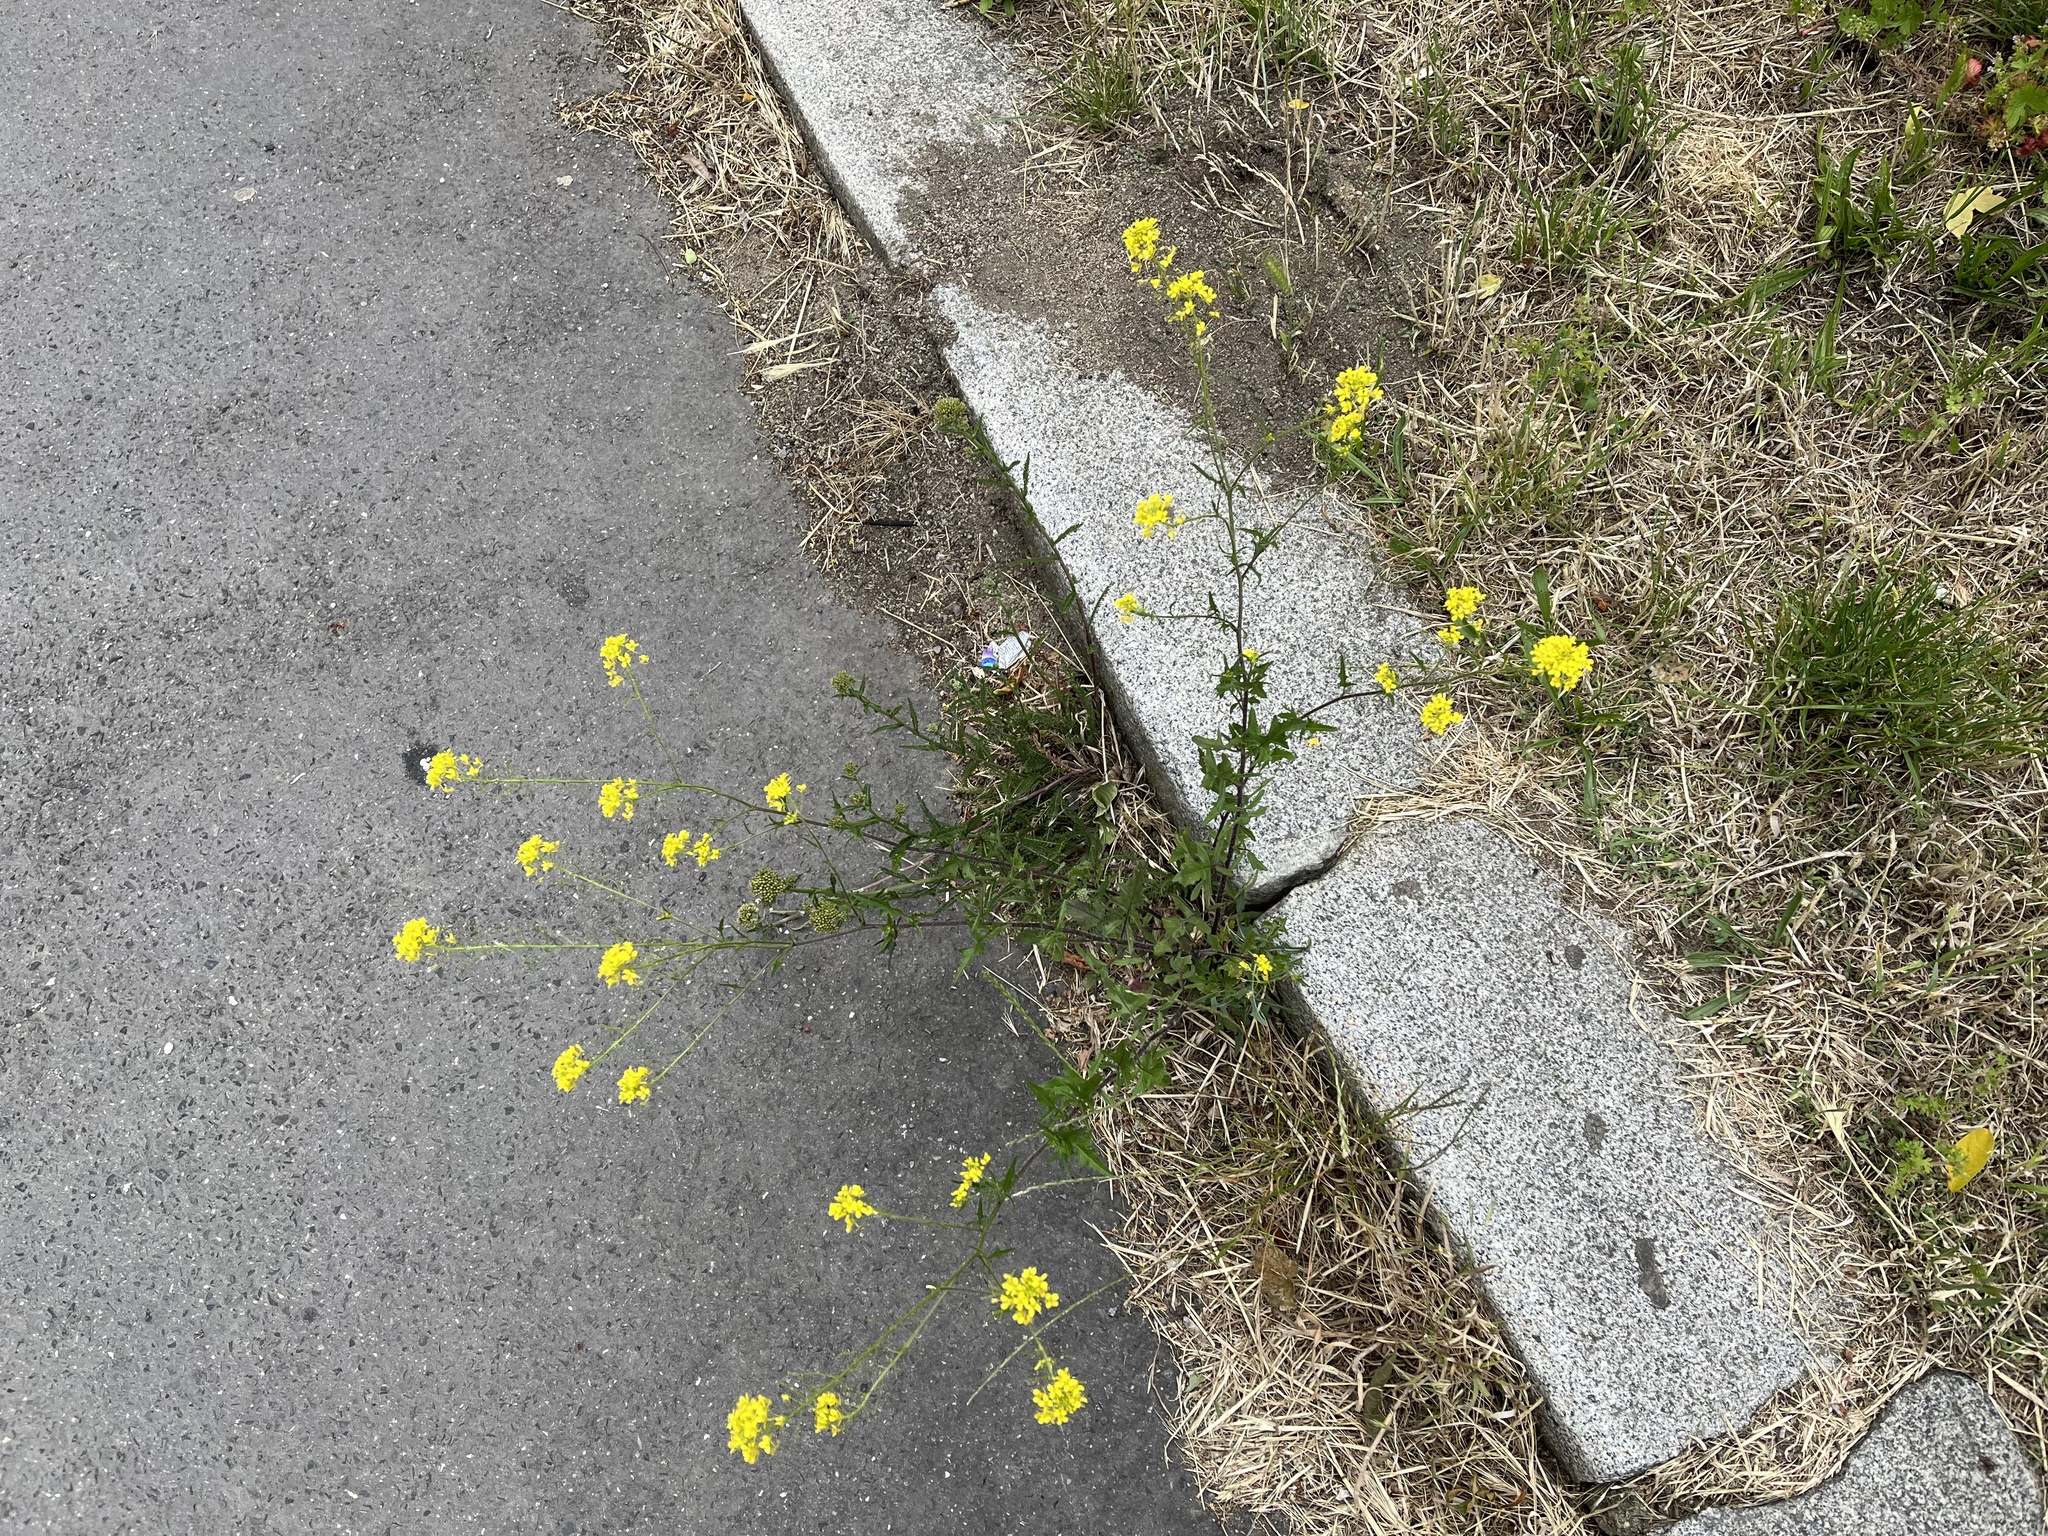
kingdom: Plantae
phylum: Tracheophyta
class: Magnoliopsida
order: Brassicales
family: Brassicaceae
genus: Sisymbrium
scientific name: Sisymbrium loeselii
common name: False london-rocket
